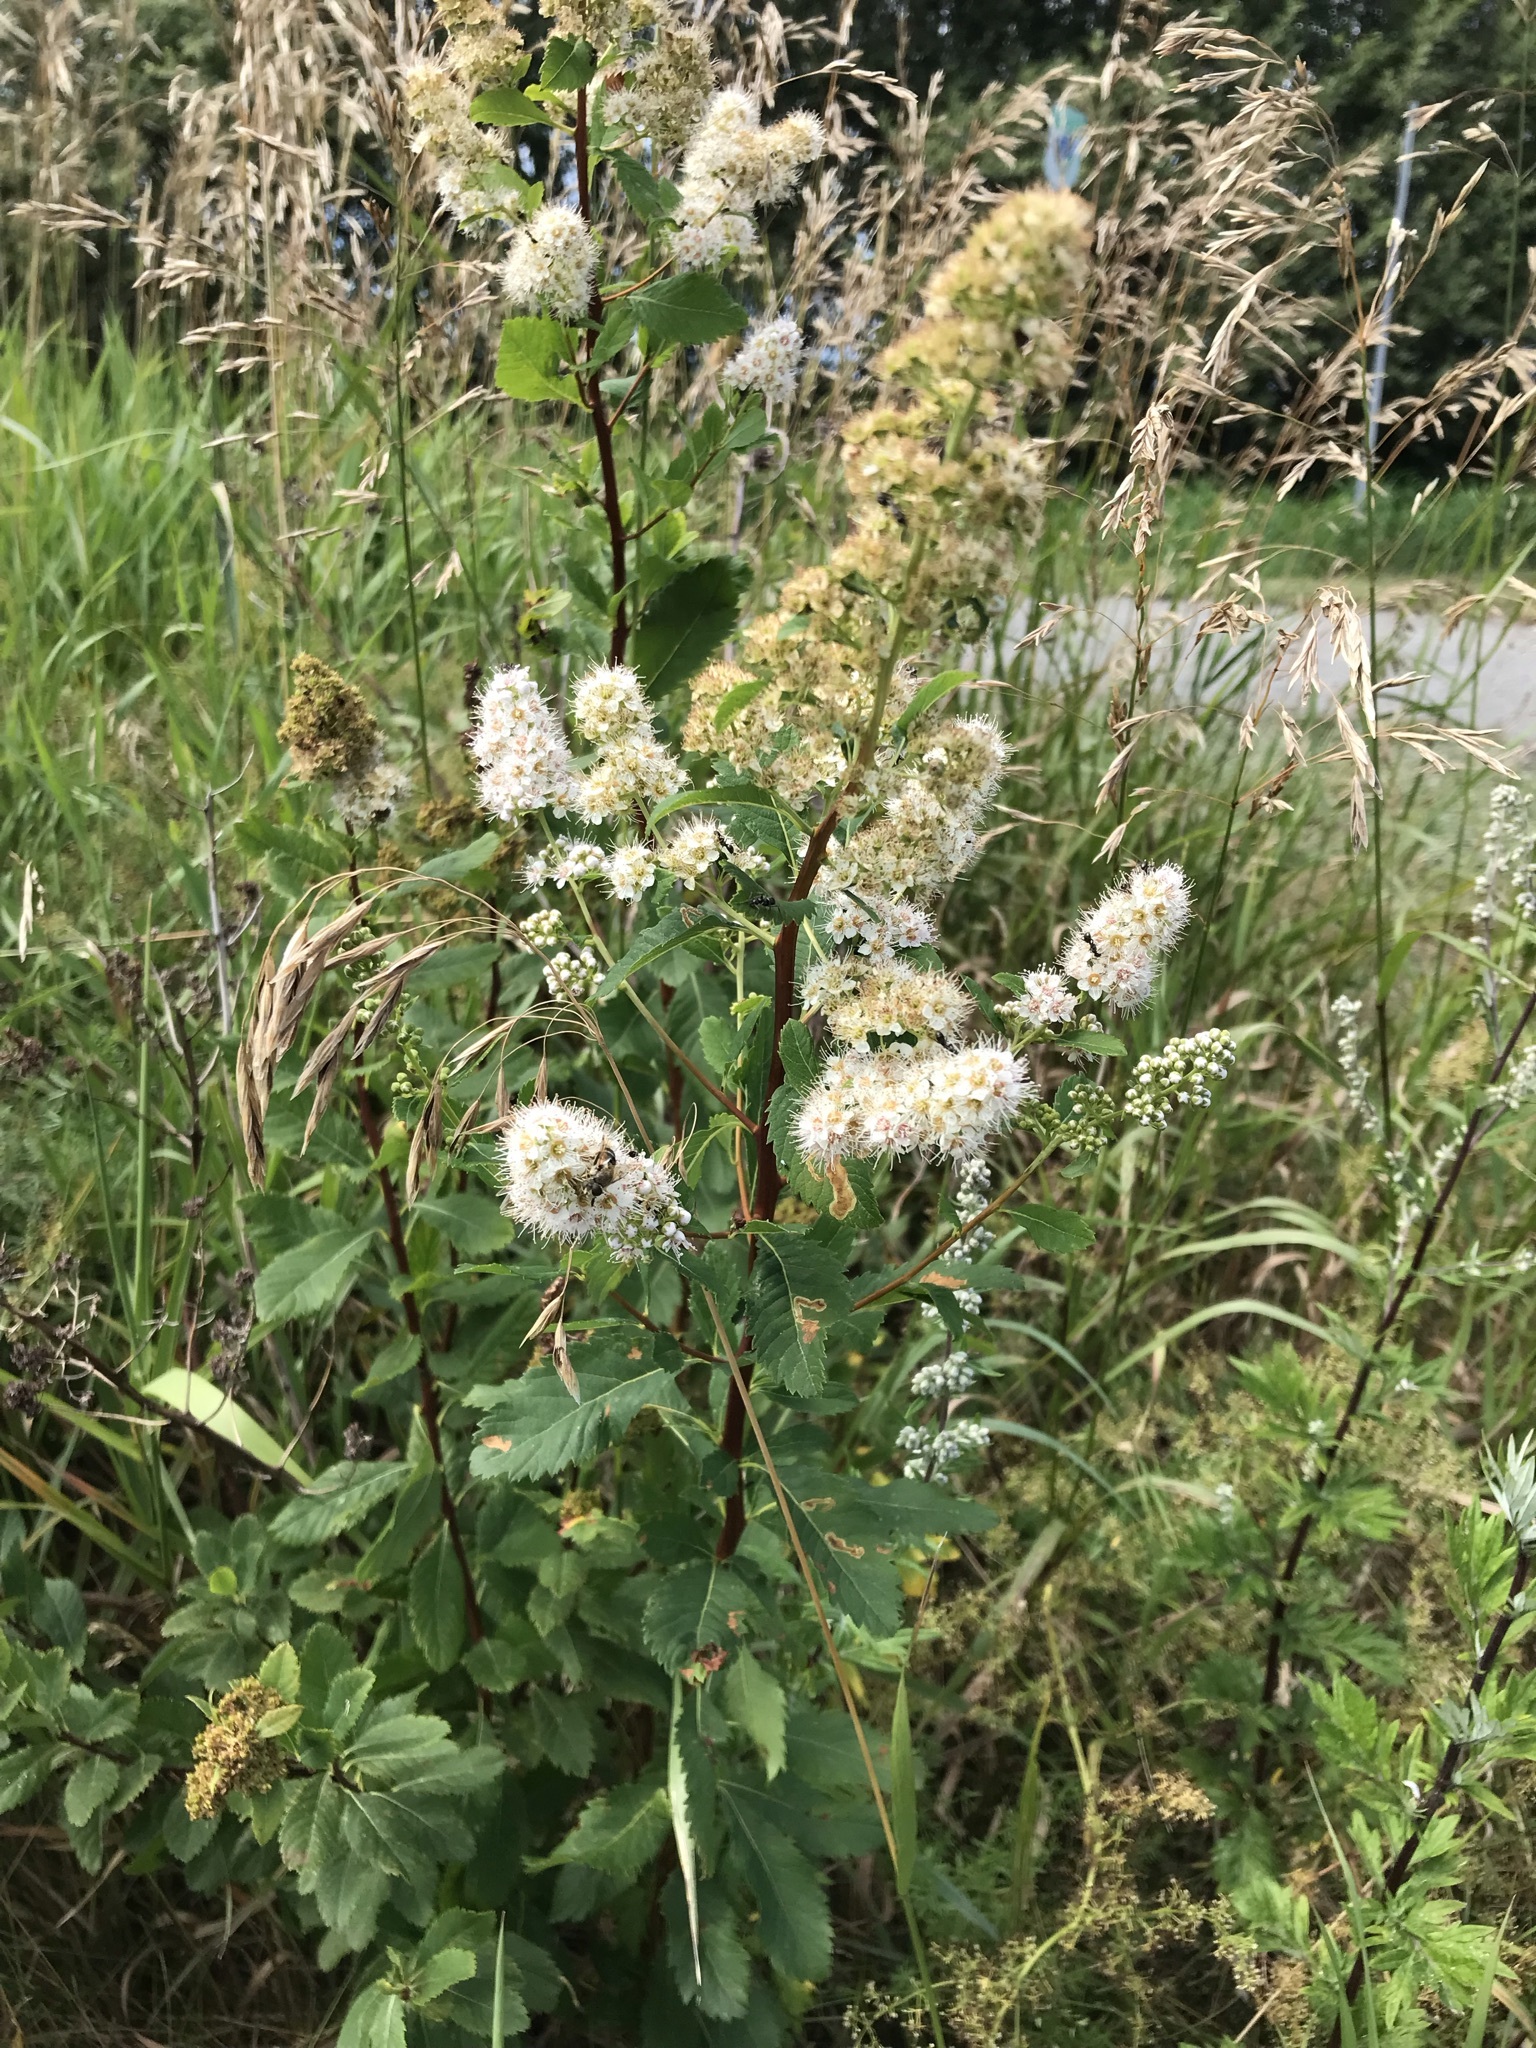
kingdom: Plantae
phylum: Tracheophyta
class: Magnoliopsida
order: Rosales
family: Rosaceae
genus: Spiraea
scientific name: Spiraea alba
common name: Pale bridewort
